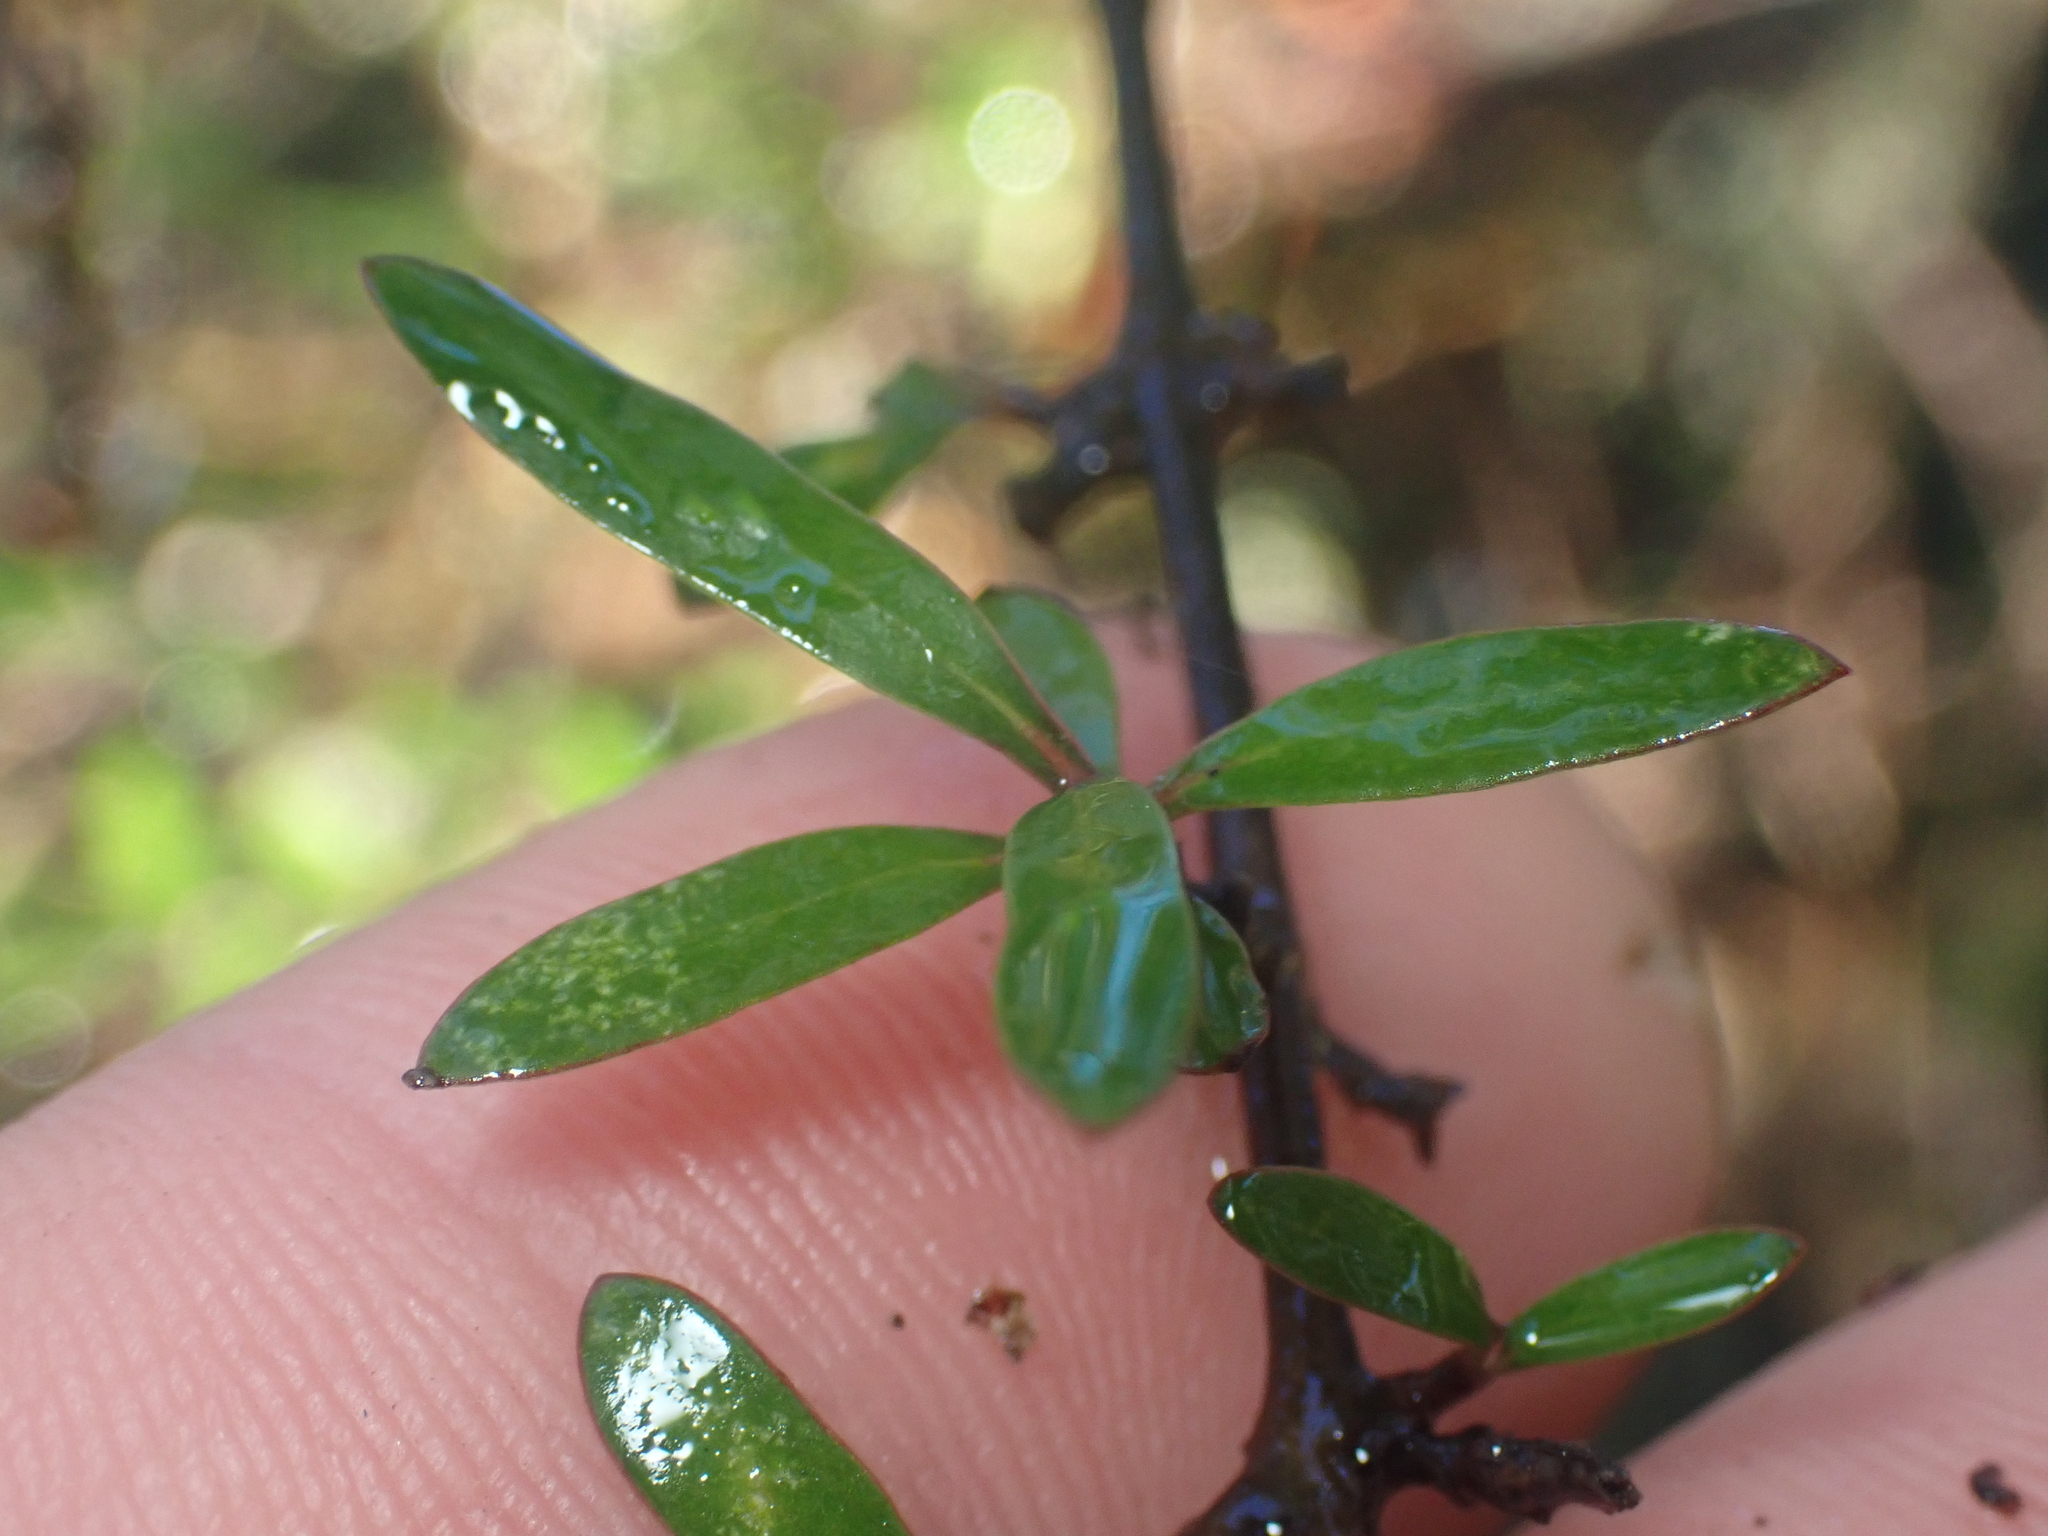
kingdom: Plantae
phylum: Tracheophyta
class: Magnoliopsida
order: Santalales
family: Viscaceae
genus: Korthalsella
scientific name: Korthalsella clavata
